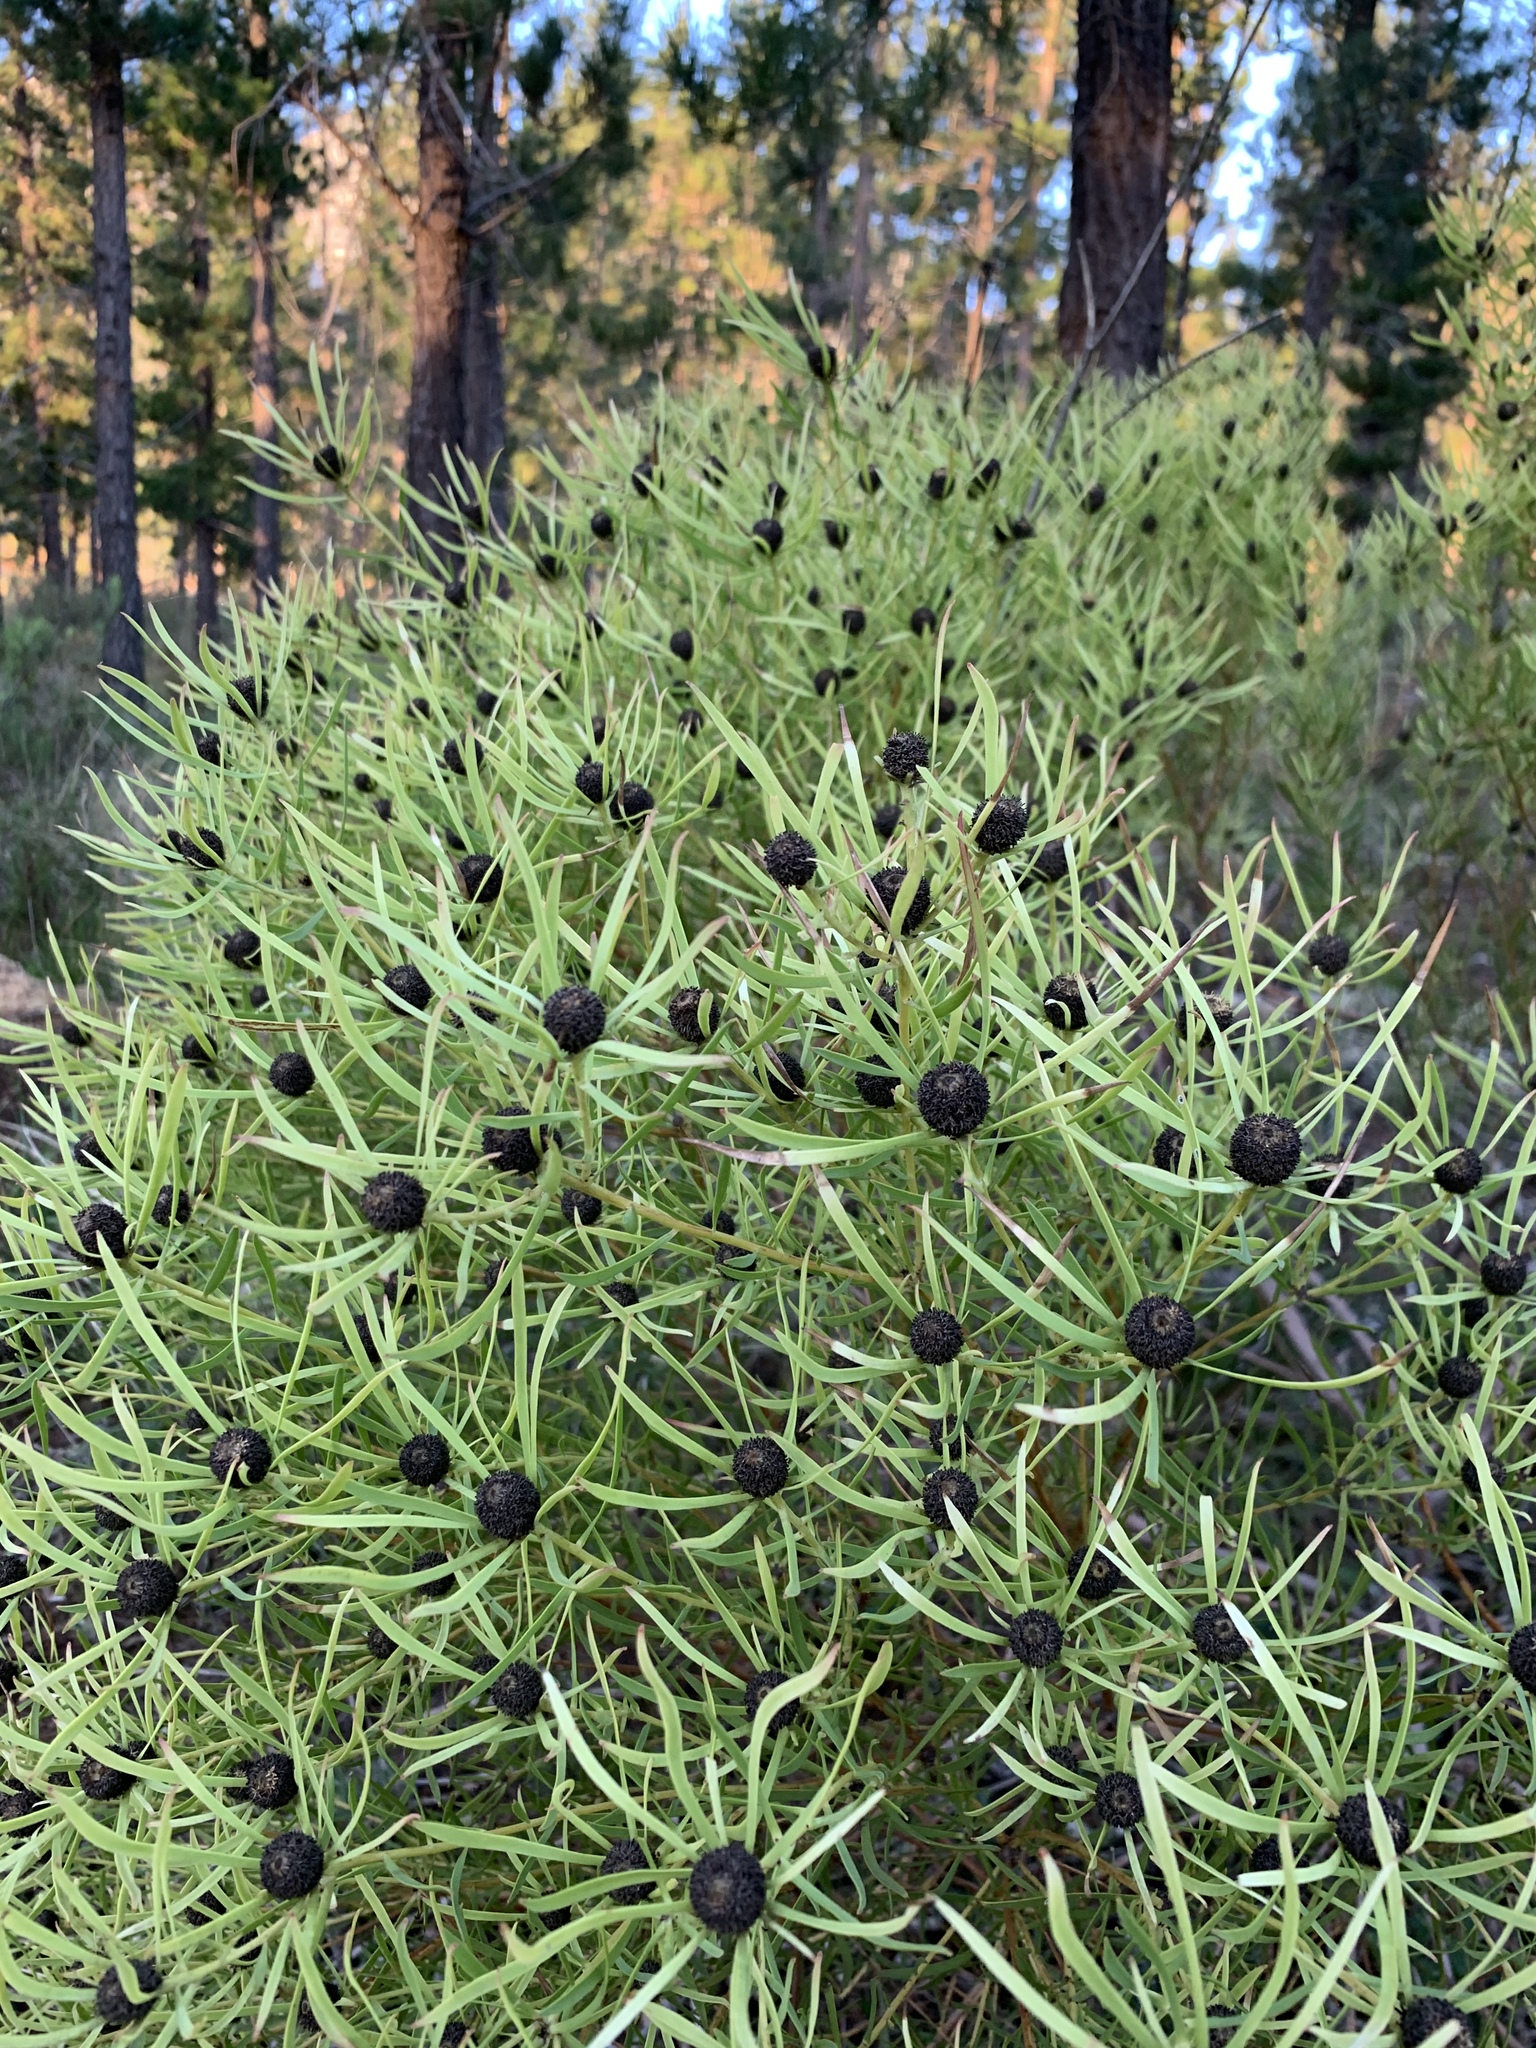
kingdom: Plantae
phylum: Tracheophyta
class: Magnoliopsida
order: Proteales
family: Proteaceae
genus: Leucadendron
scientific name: Leucadendron salignum
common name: Common sunshine conebush
